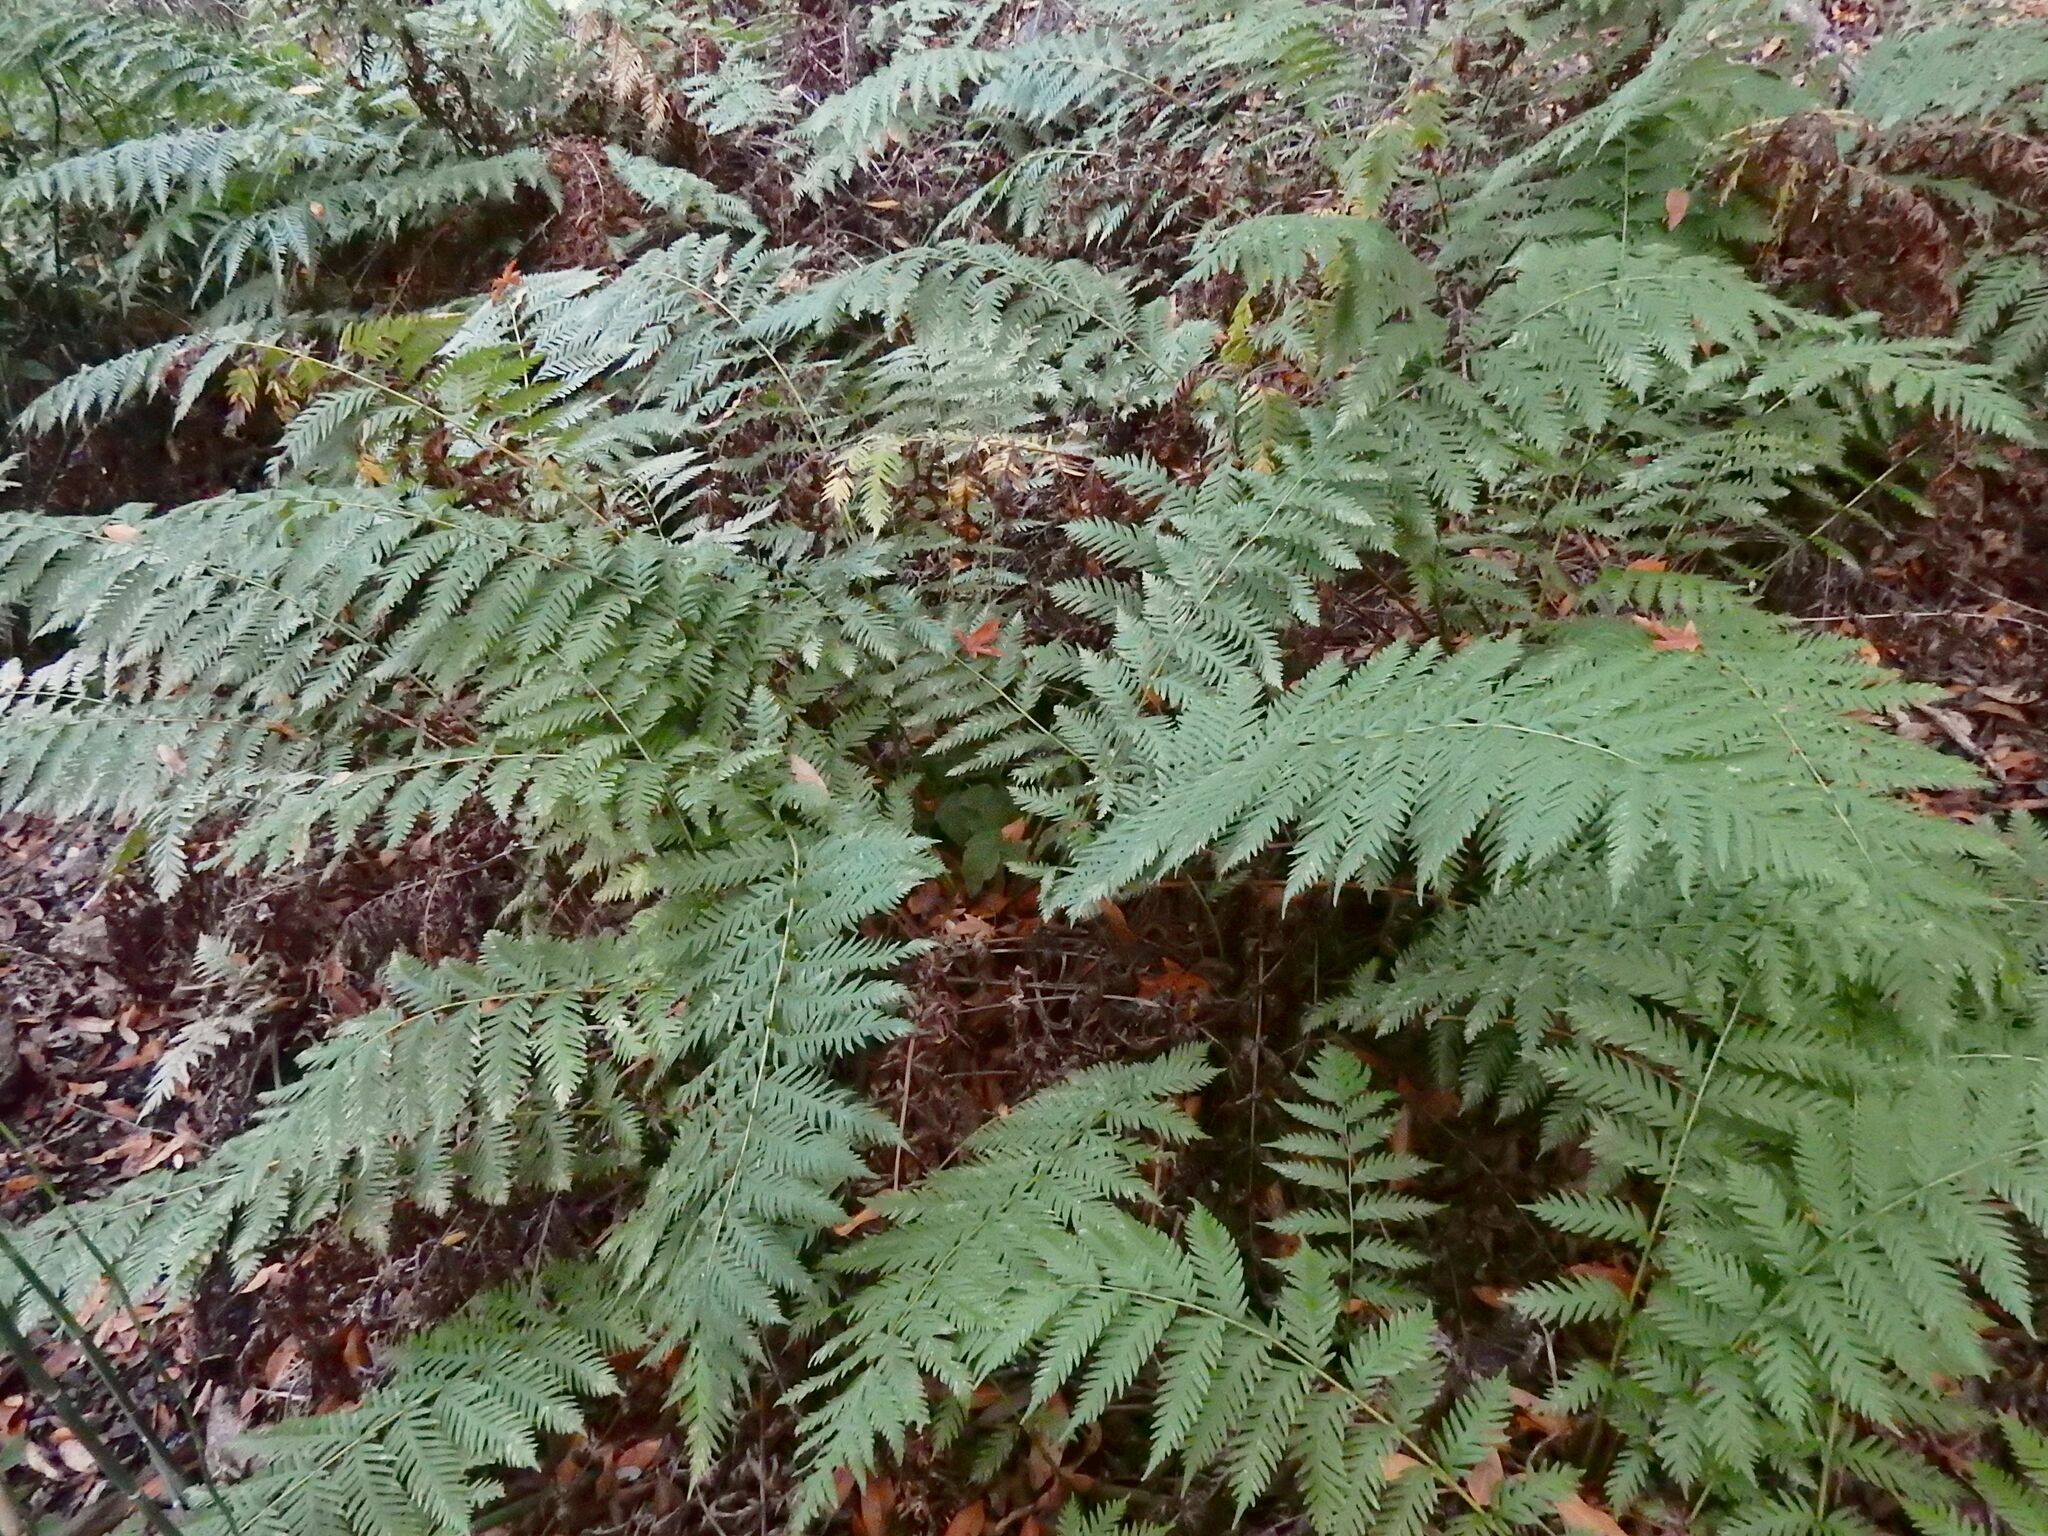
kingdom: Plantae
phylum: Tracheophyta
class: Polypodiopsida
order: Polypodiales
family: Blechnaceae
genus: Woodwardia
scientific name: Woodwardia fimbriata
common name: Giant chain fern
